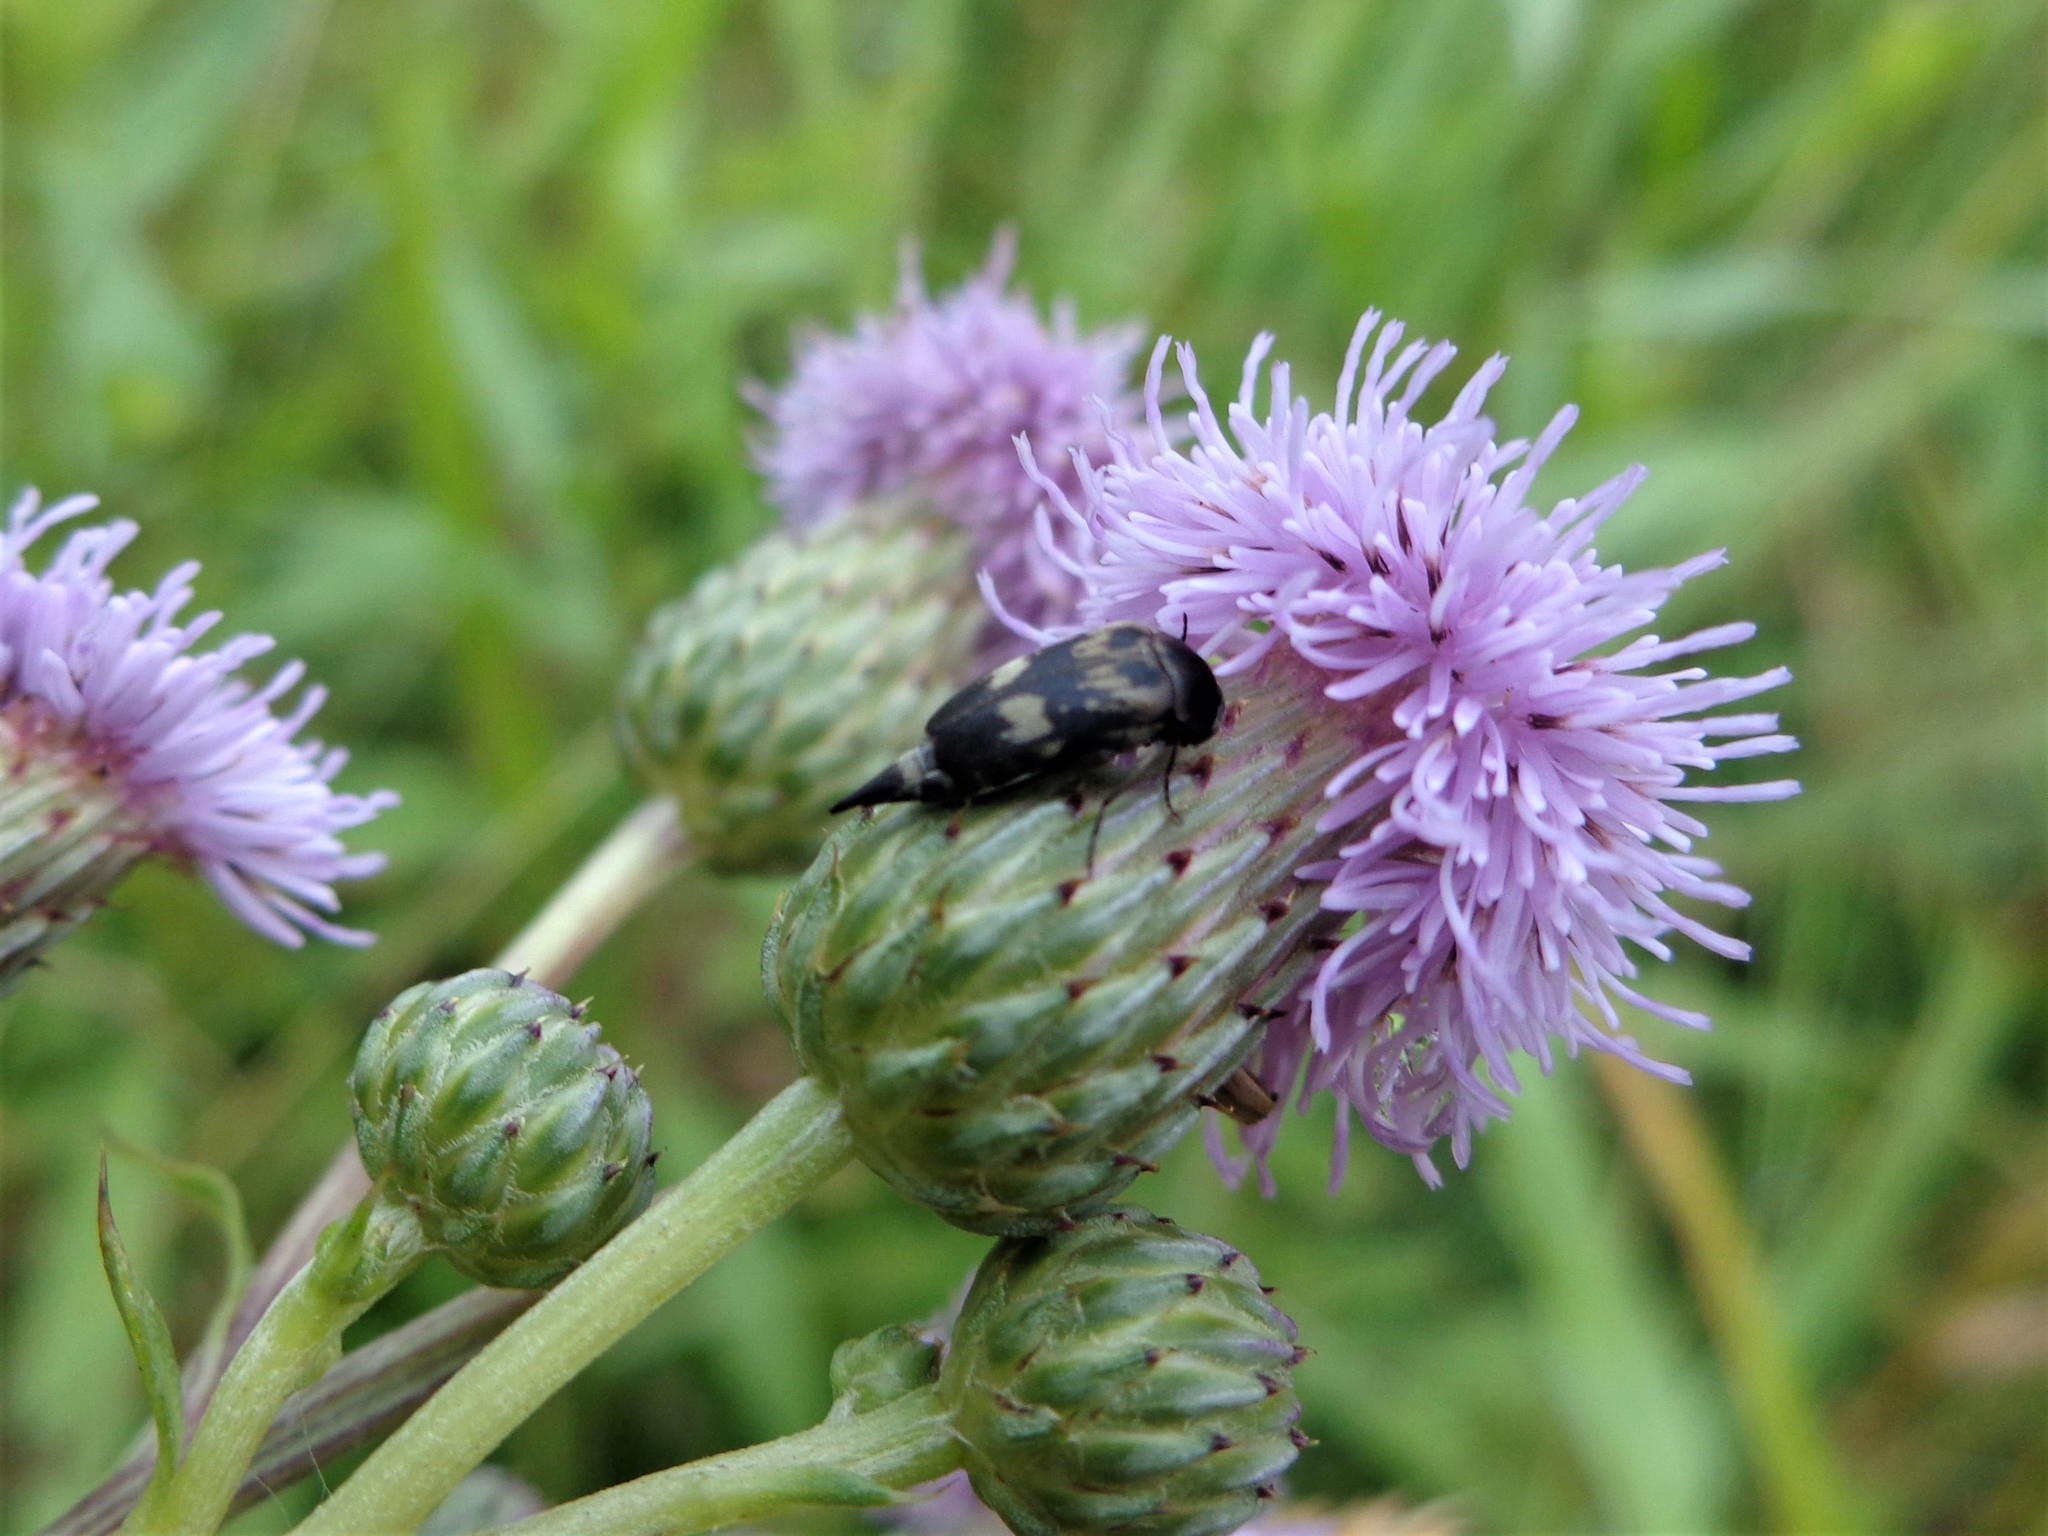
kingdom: Animalia
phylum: Arthropoda
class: Insecta
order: Coleoptera
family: Mordellidae
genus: Variimorda
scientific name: Variimorda villosa
